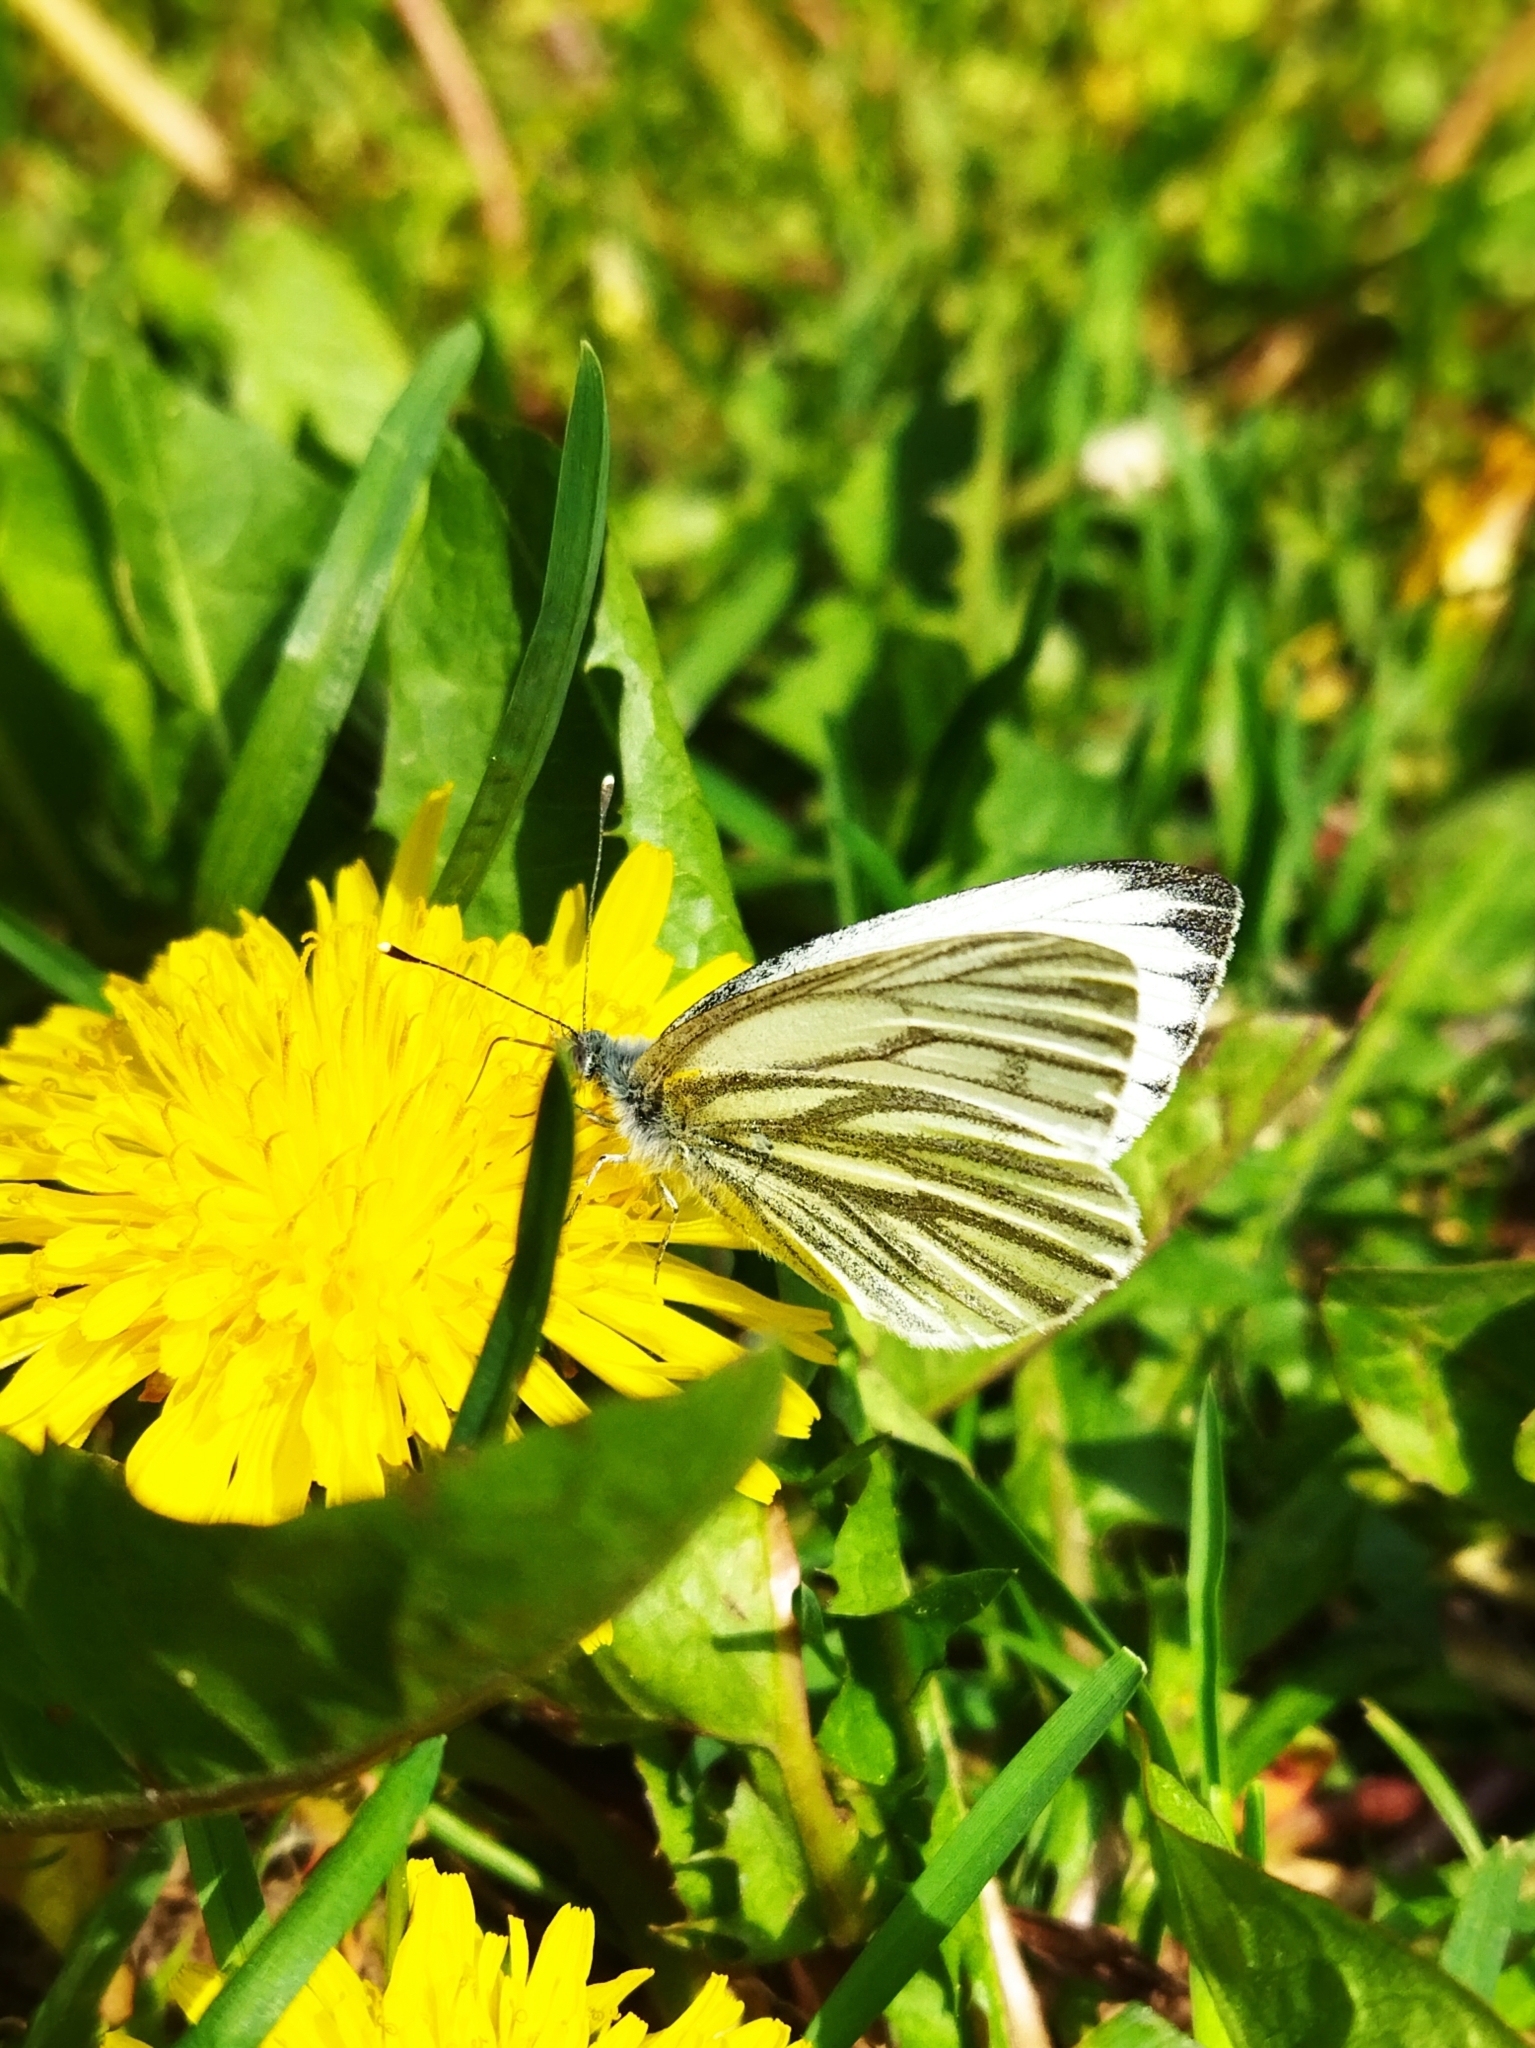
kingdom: Animalia
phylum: Arthropoda
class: Insecta
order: Lepidoptera
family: Pieridae
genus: Pieris
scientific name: Pieris napi
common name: Green-veined white
